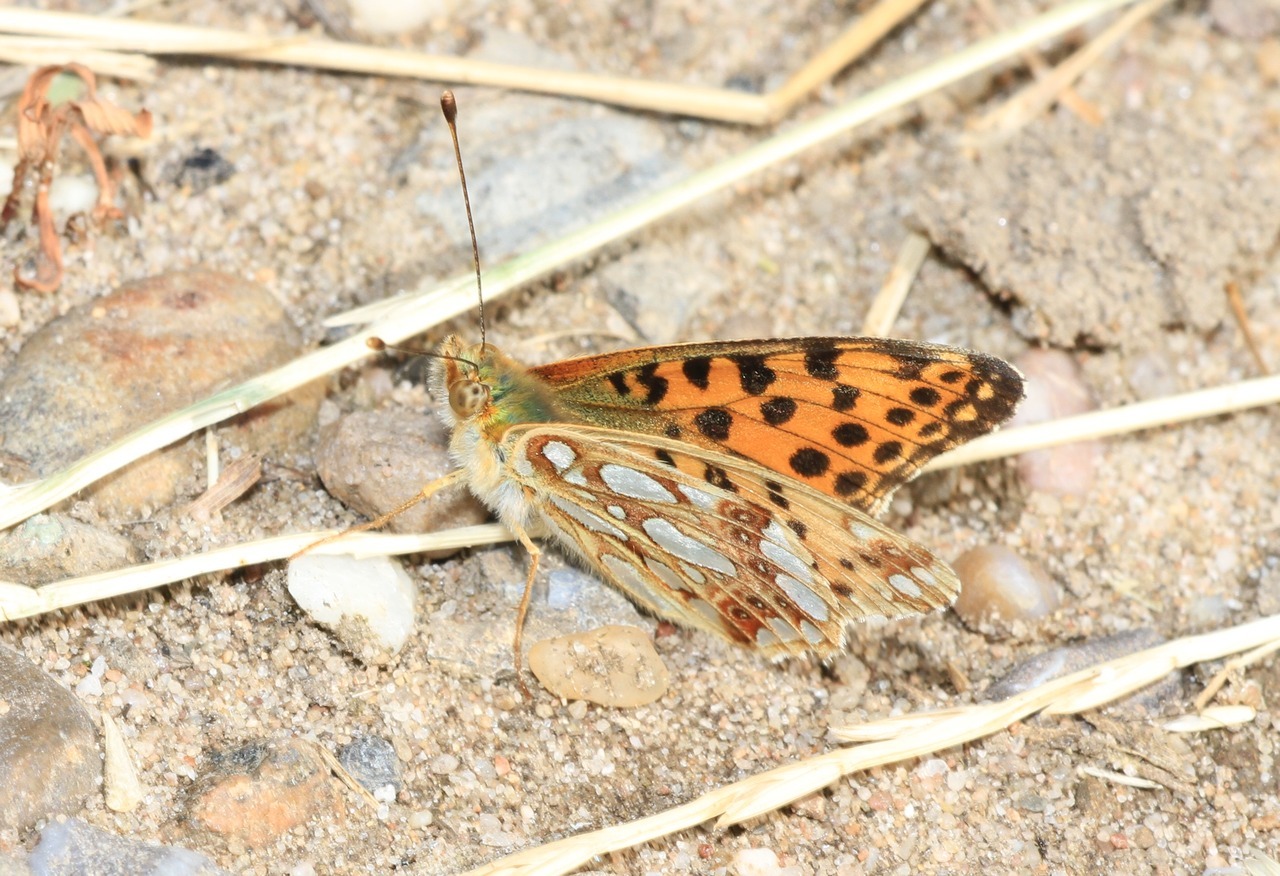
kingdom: Animalia
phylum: Arthropoda
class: Insecta
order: Lepidoptera
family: Nymphalidae
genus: Issoria
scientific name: Issoria lathonia
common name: Queen of spain fritillary
